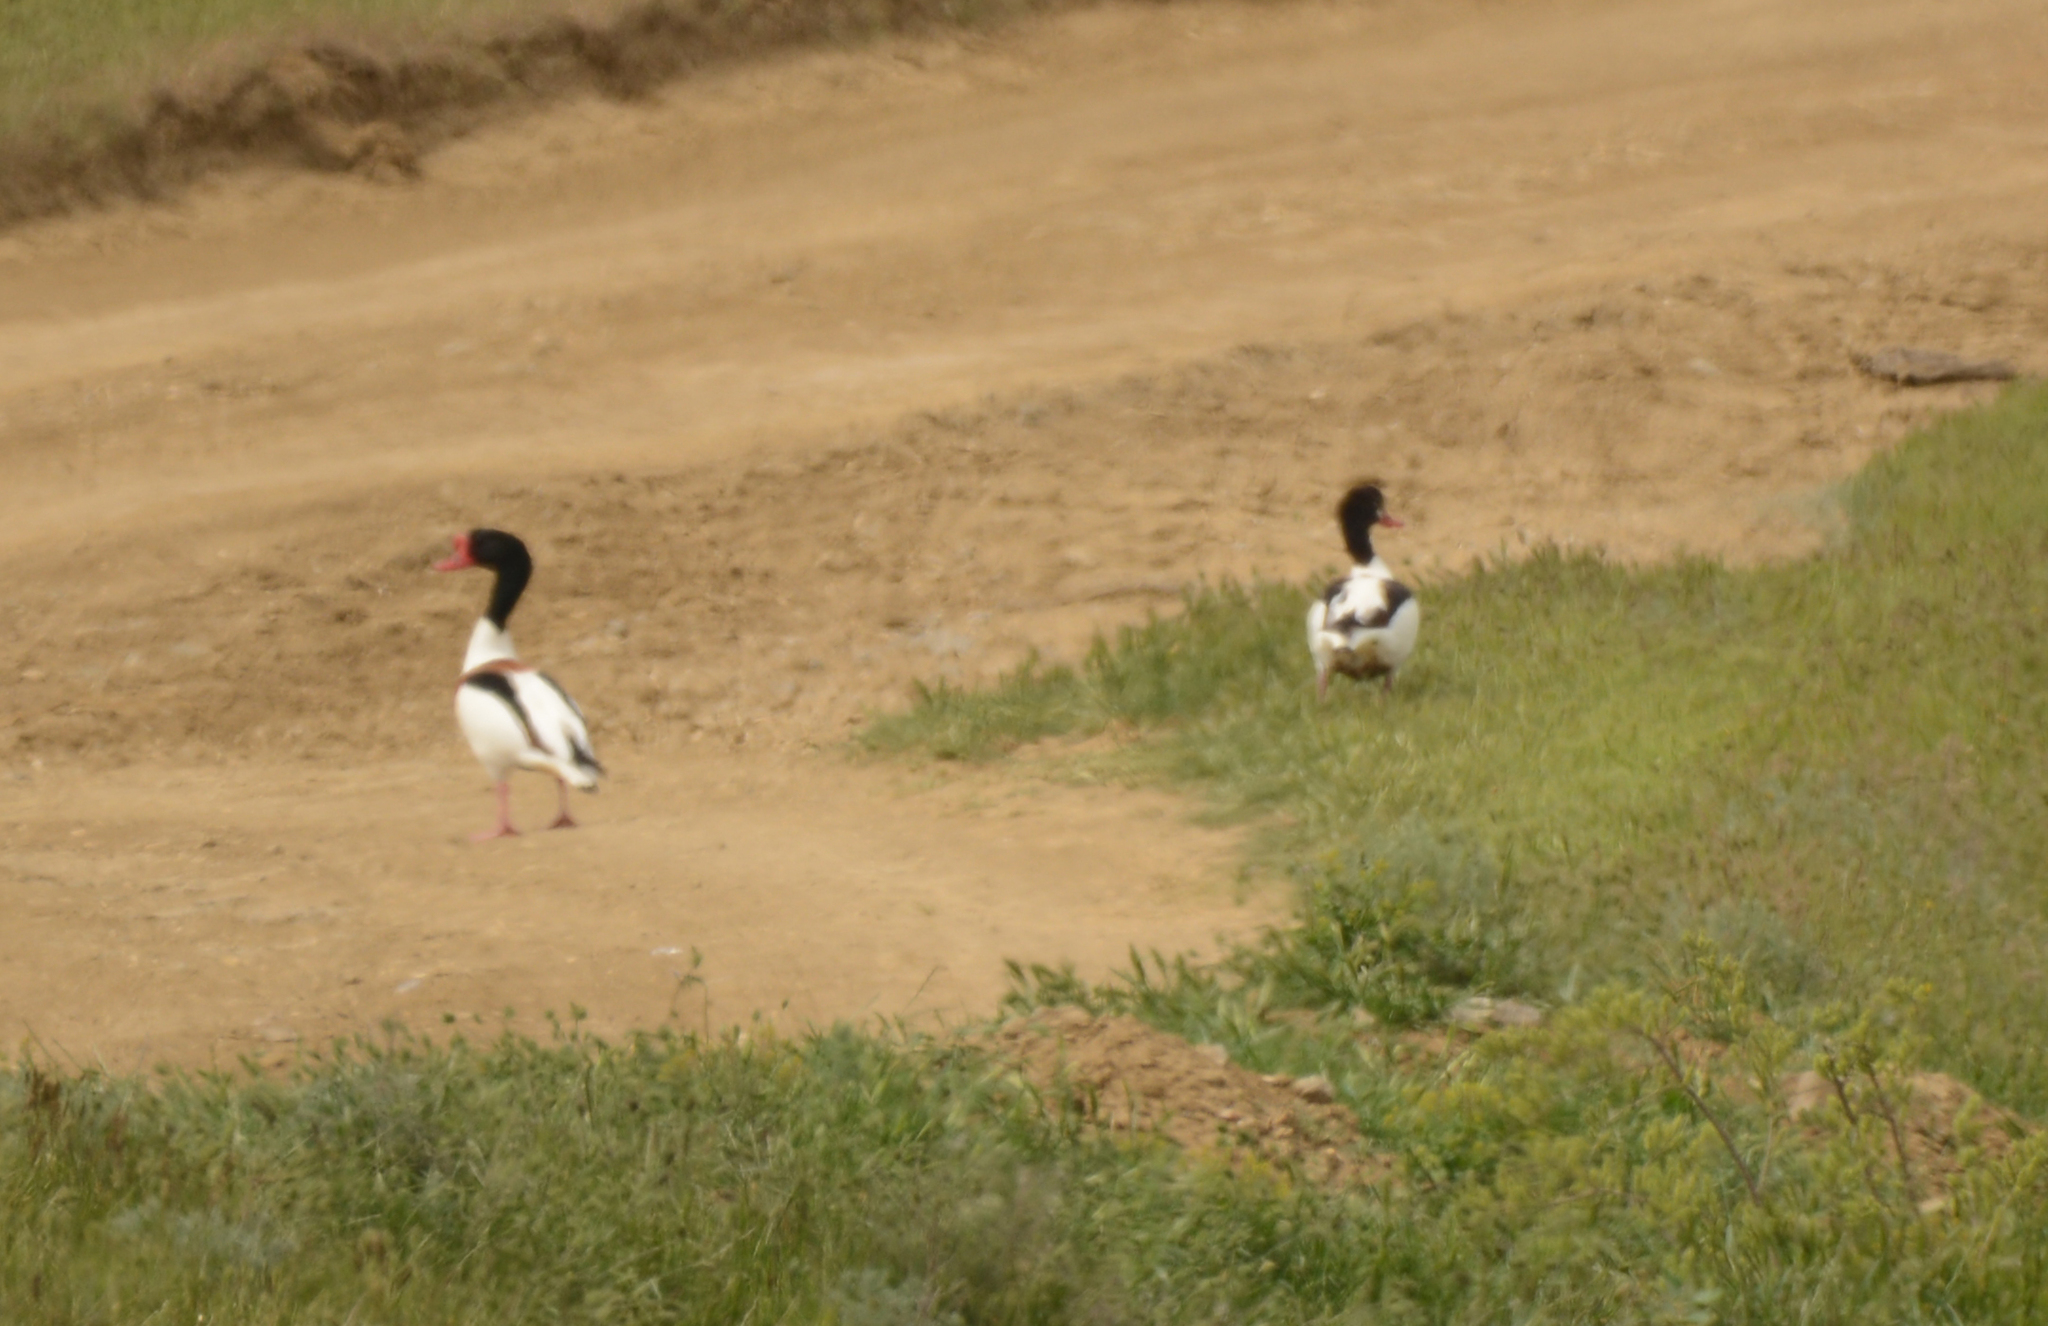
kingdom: Animalia
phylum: Chordata
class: Aves
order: Anseriformes
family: Anatidae
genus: Tadorna
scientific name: Tadorna tadorna
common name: Common shelduck
